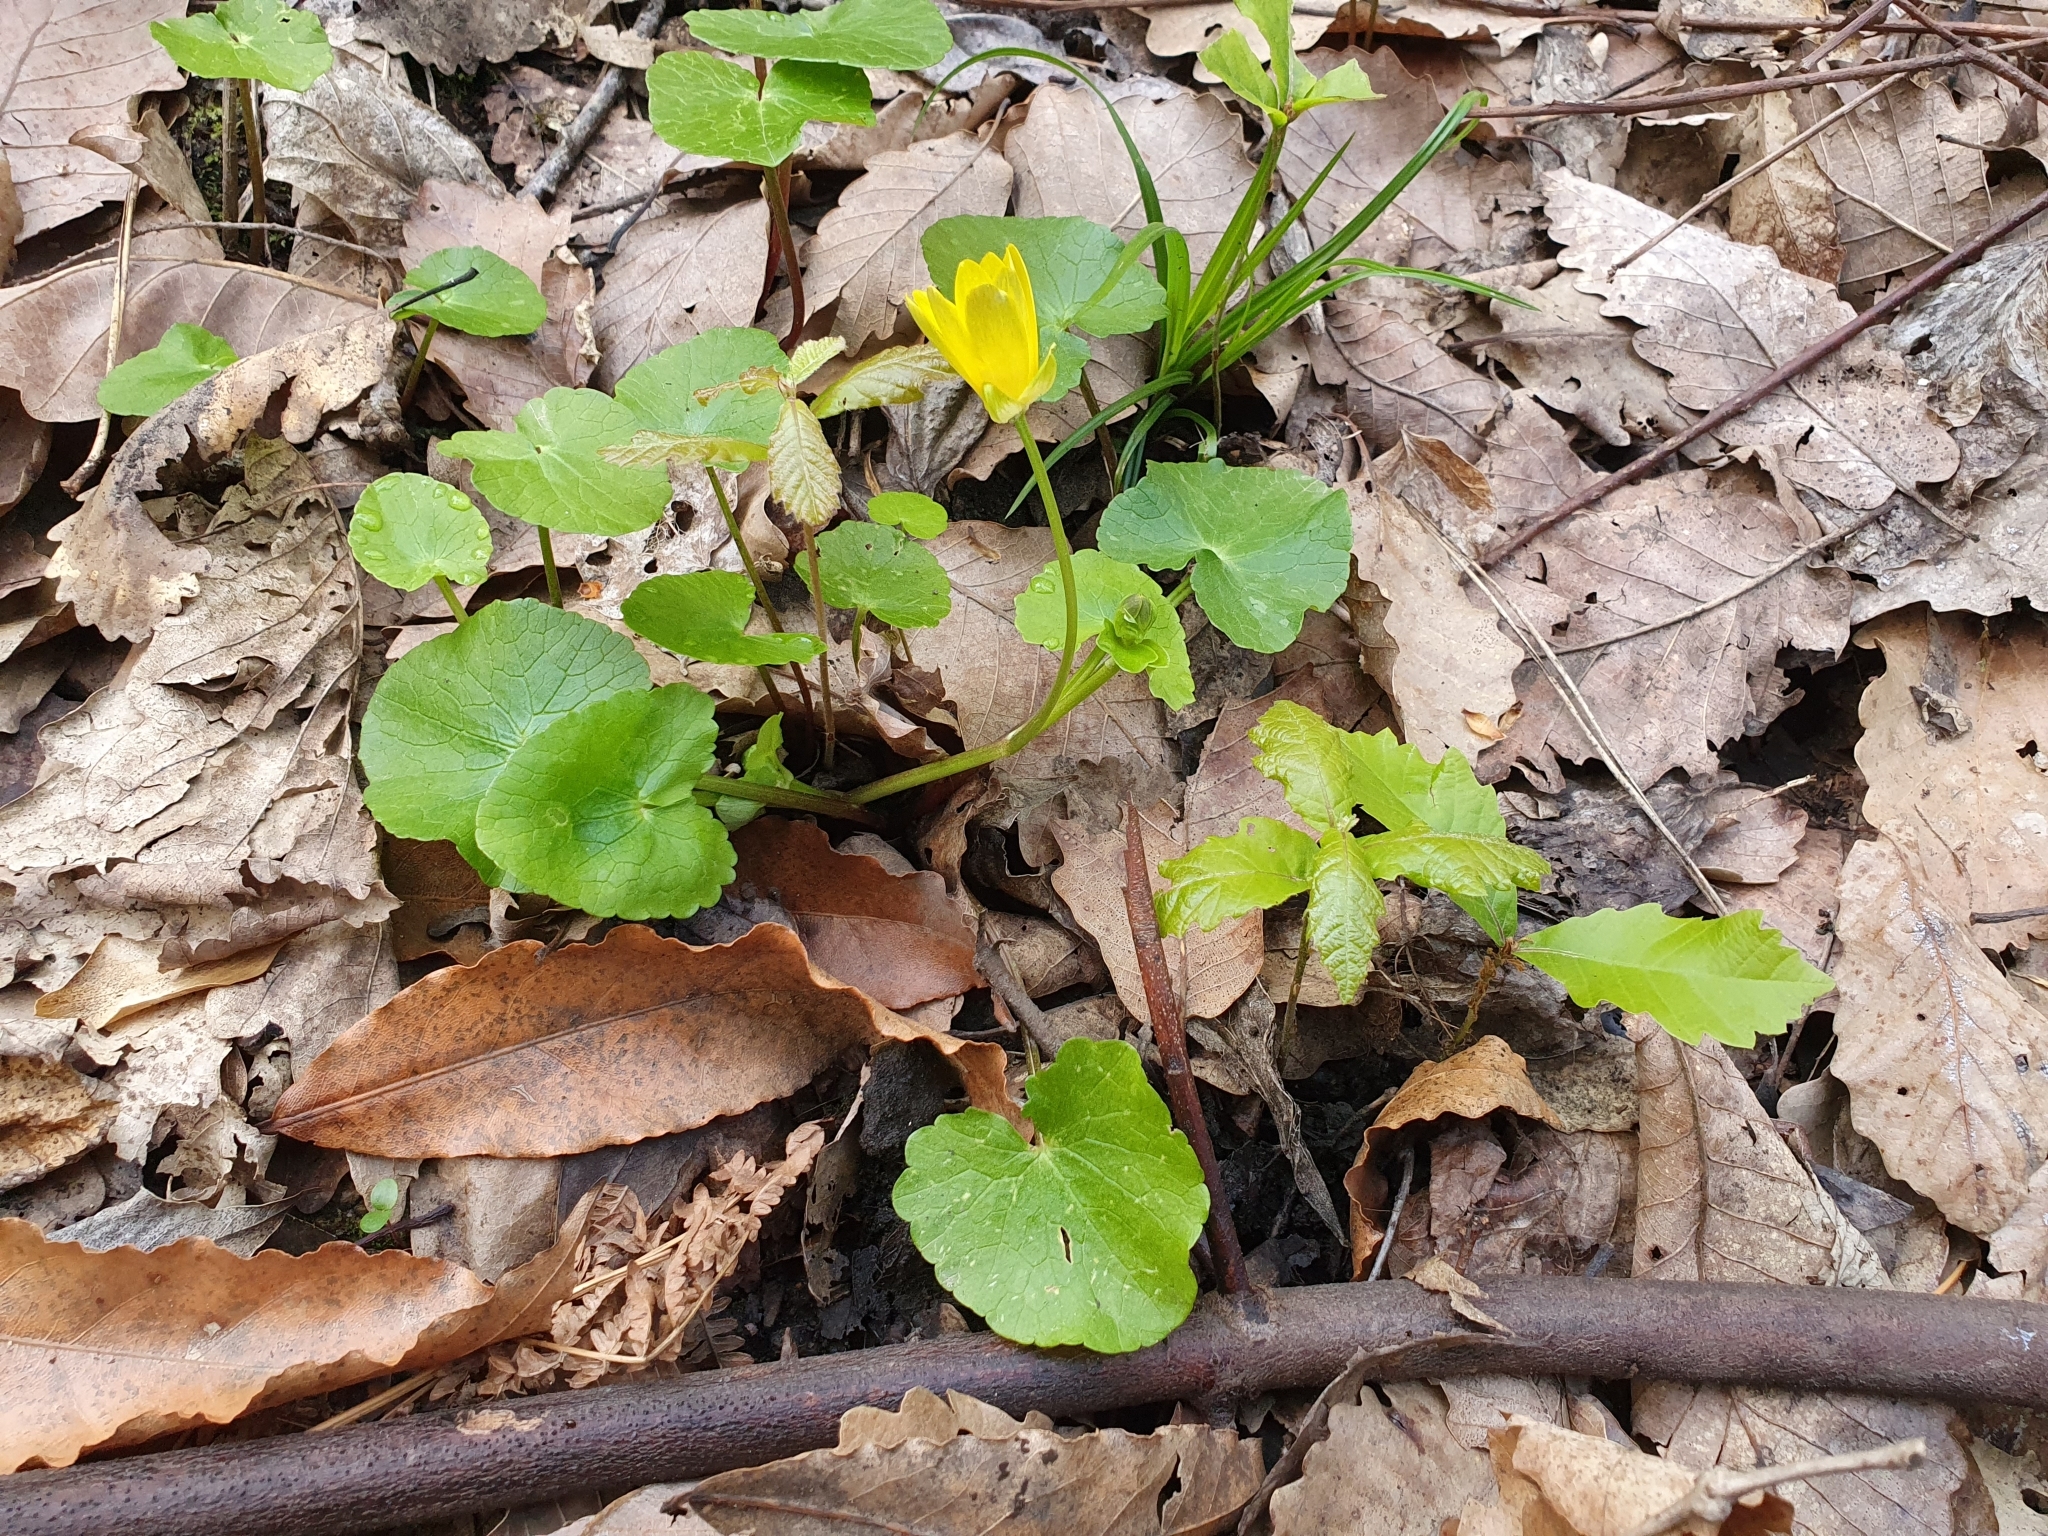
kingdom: Plantae
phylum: Tracheophyta
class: Magnoliopsida
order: Ranunculales
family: Ranunculaceae
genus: Ficaria
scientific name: Ficaria verna
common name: Lesser celandine
